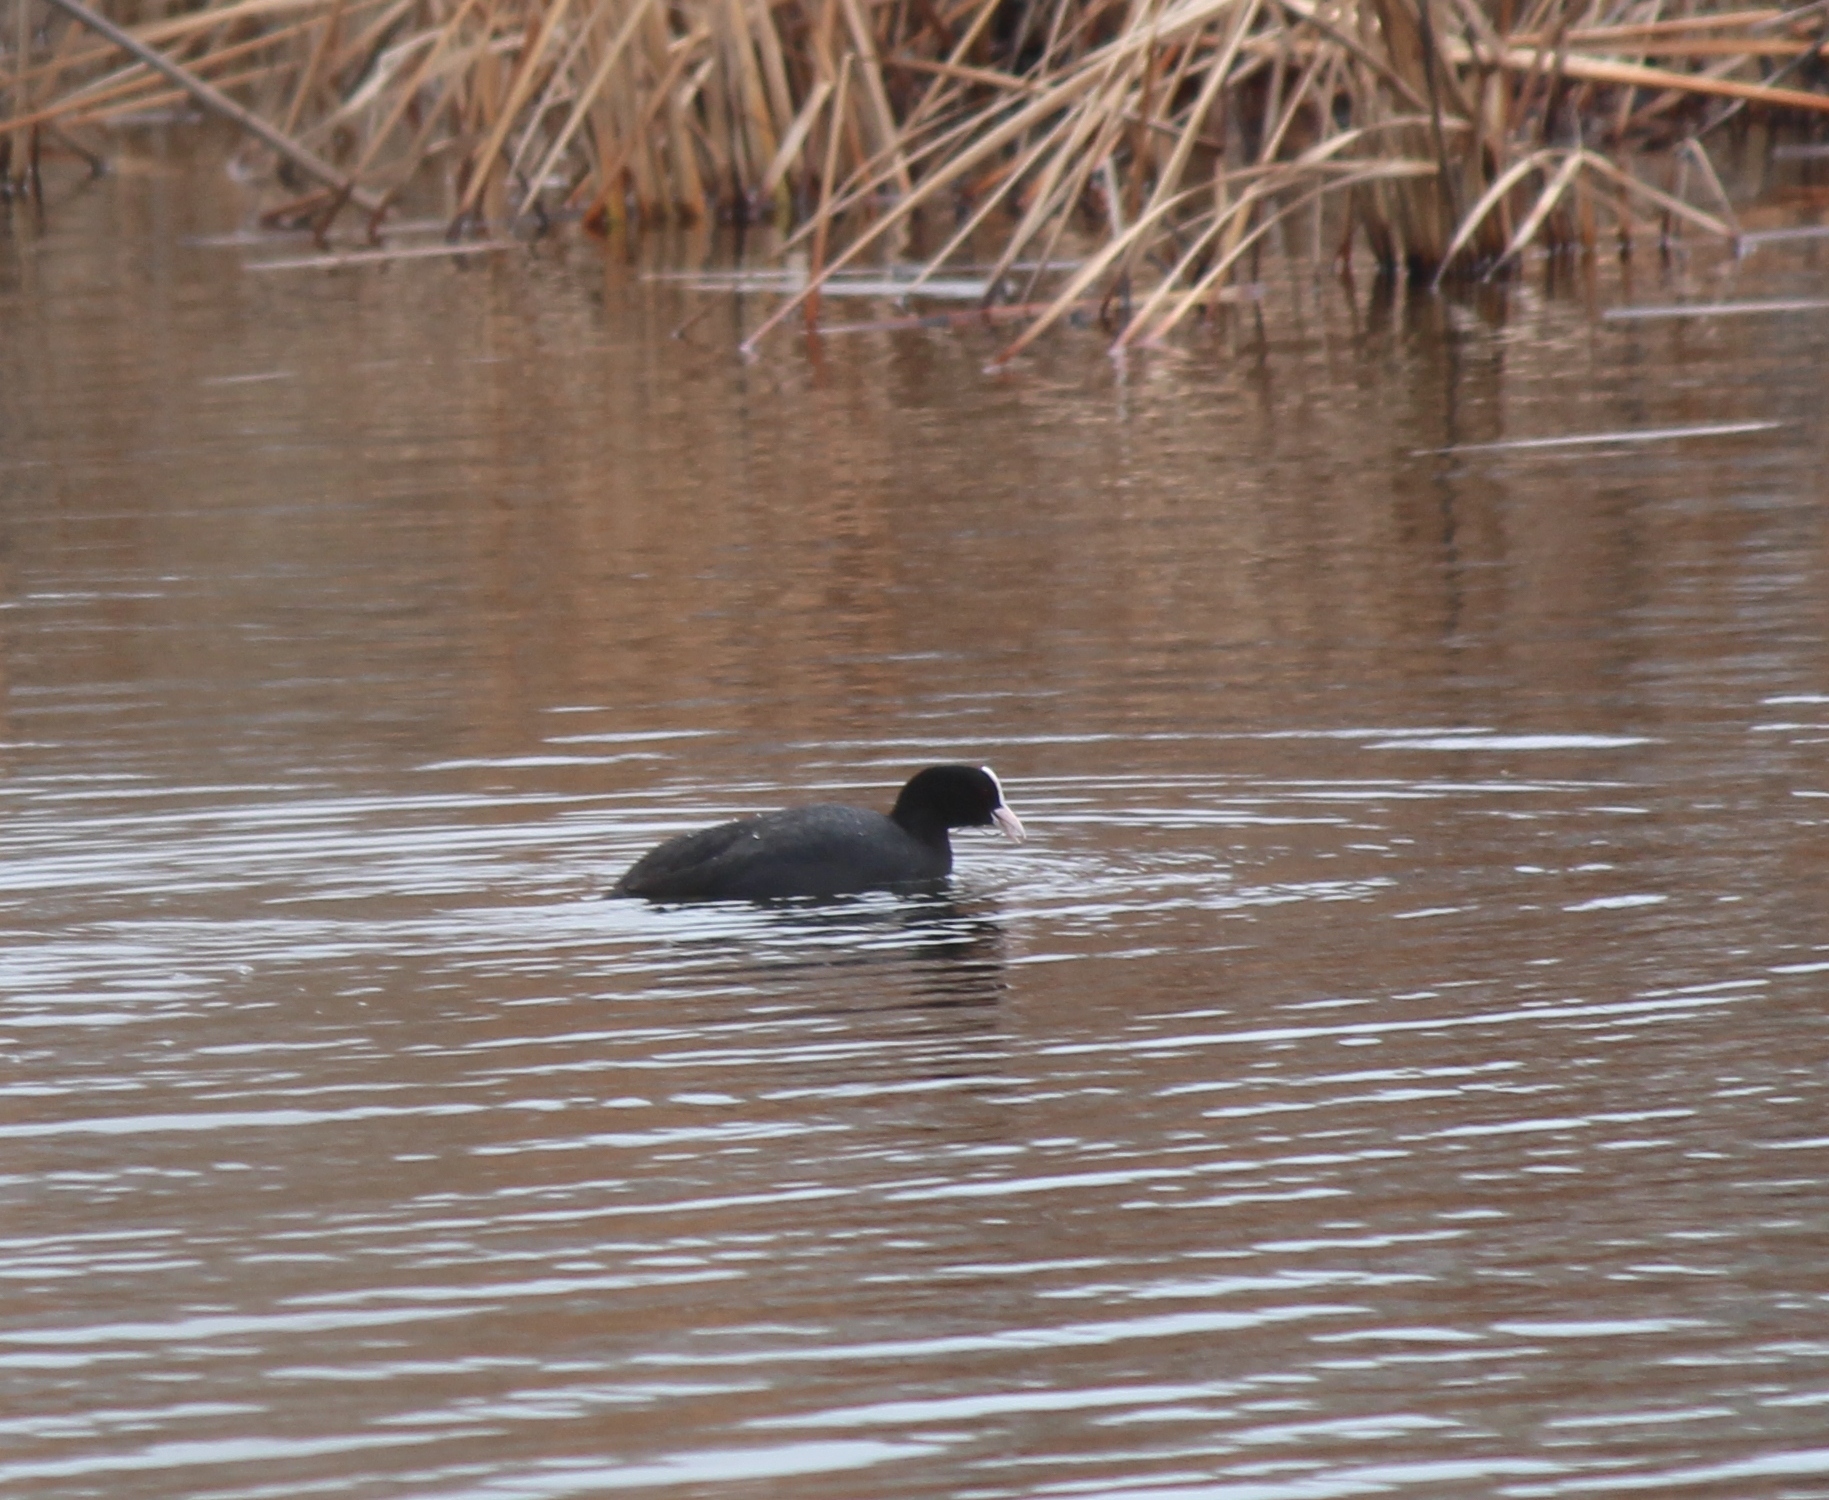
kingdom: Animalia
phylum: Chordata
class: Aves
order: Gruiformes
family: Rallidae
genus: Fulica
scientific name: Fulica atra
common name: Eurasian coot
